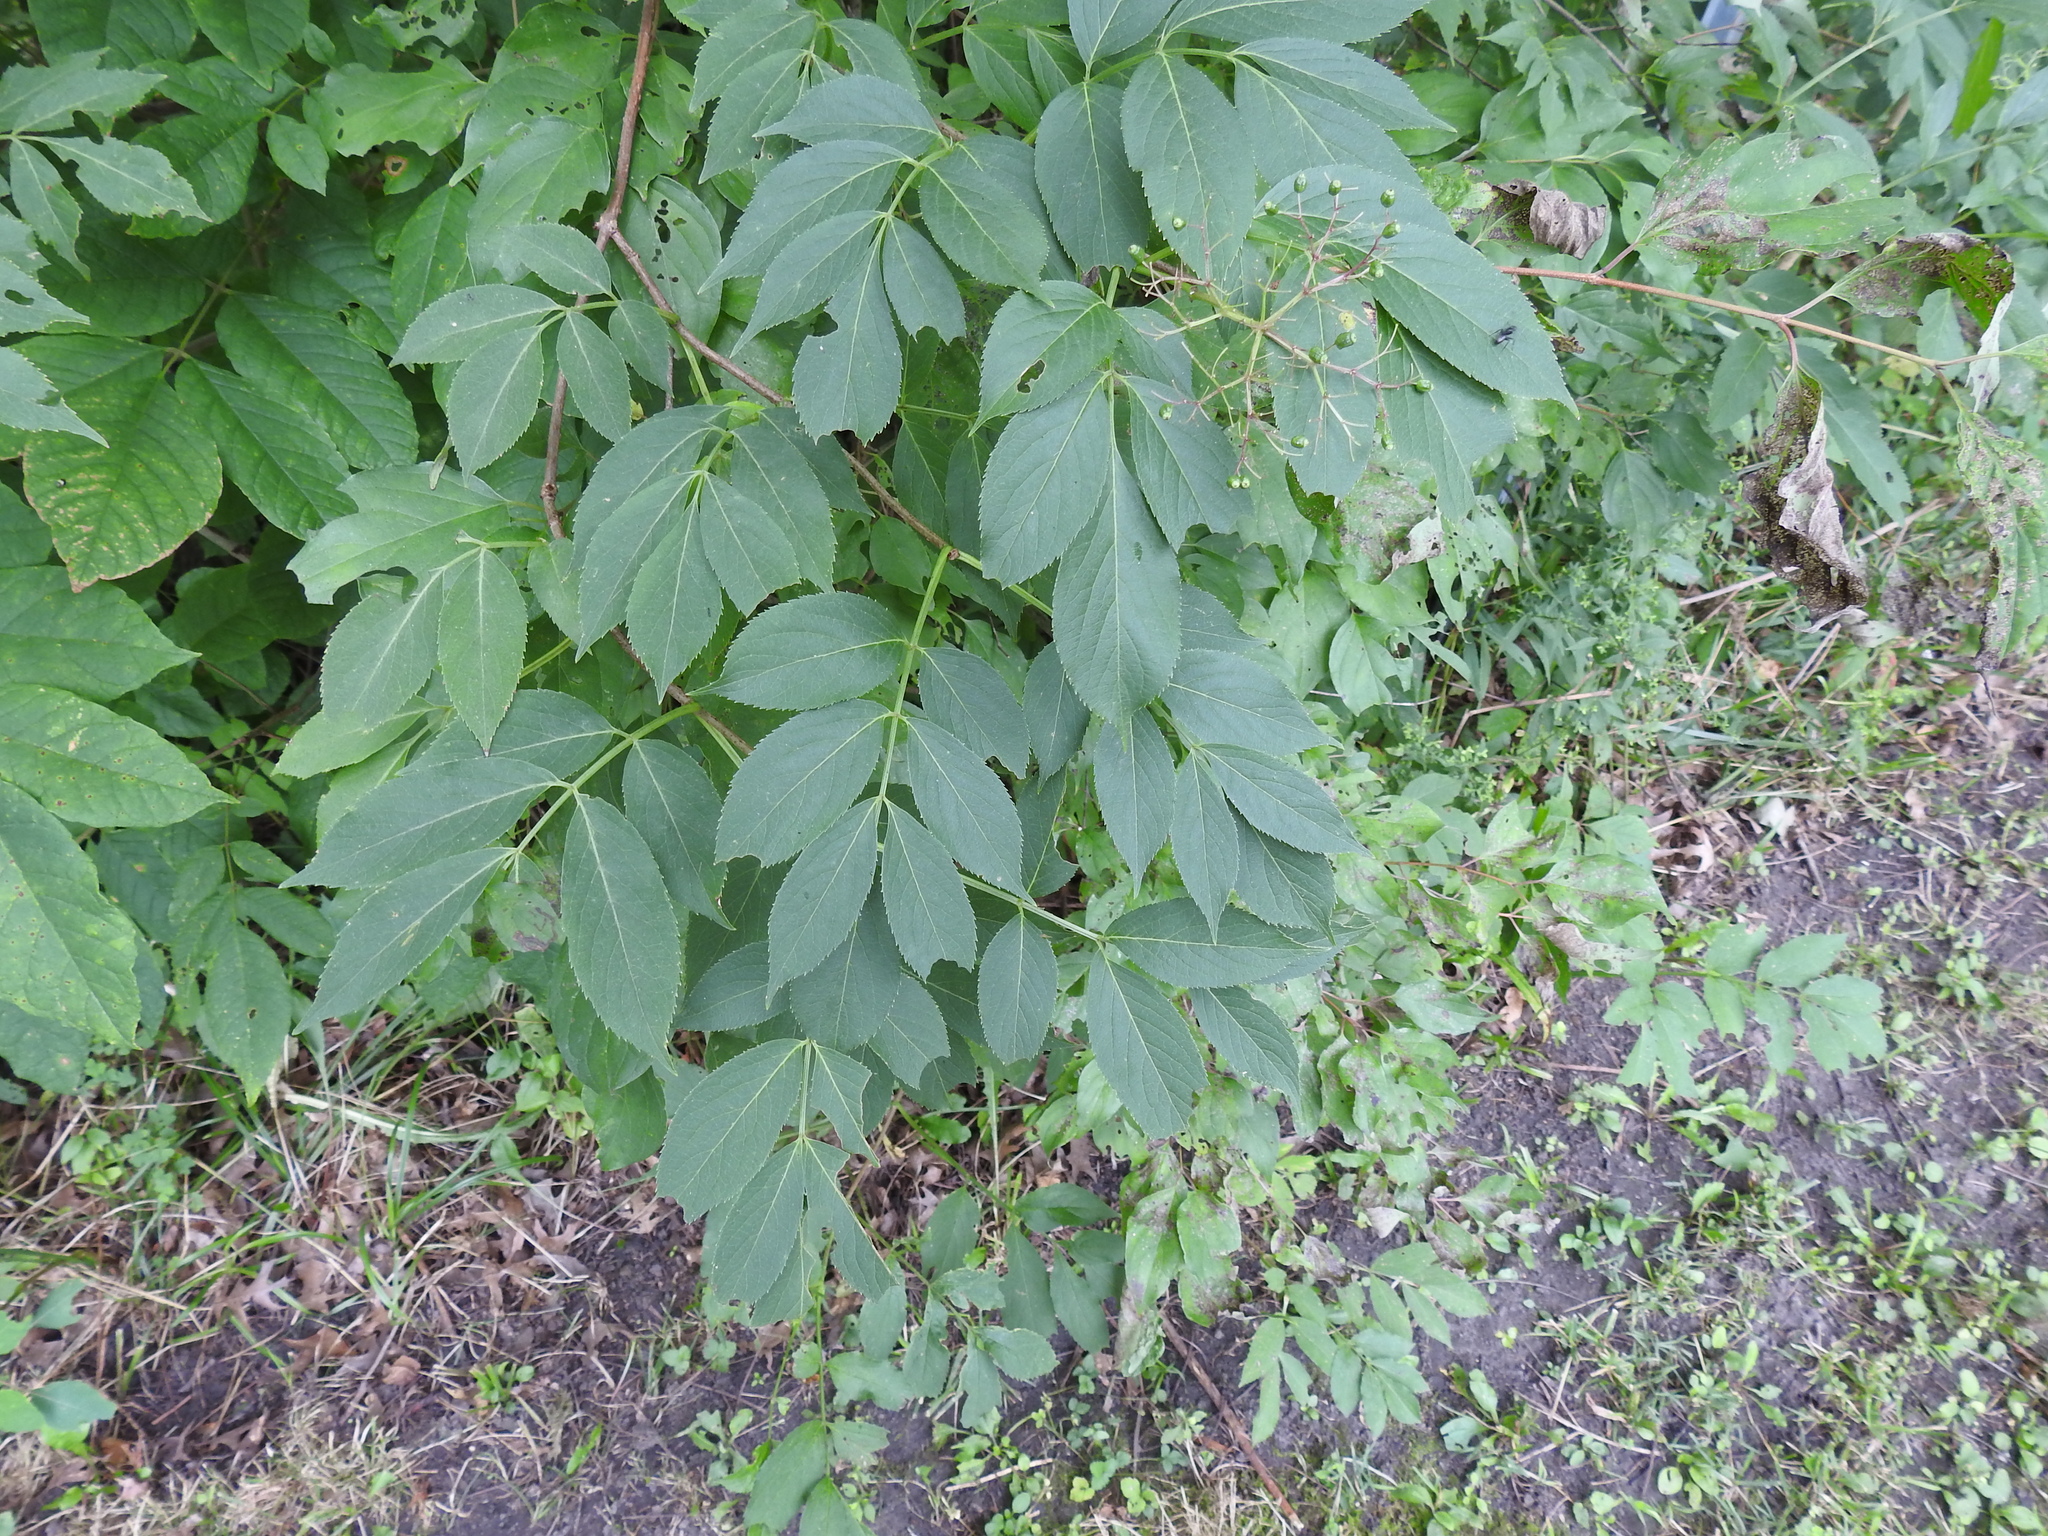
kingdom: Plantae
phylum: Tracheophyta
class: Magnoliopsida
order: Dipsacales
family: Viburnaceae
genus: Sambucus
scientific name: Sambucus canadensis
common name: American elder
